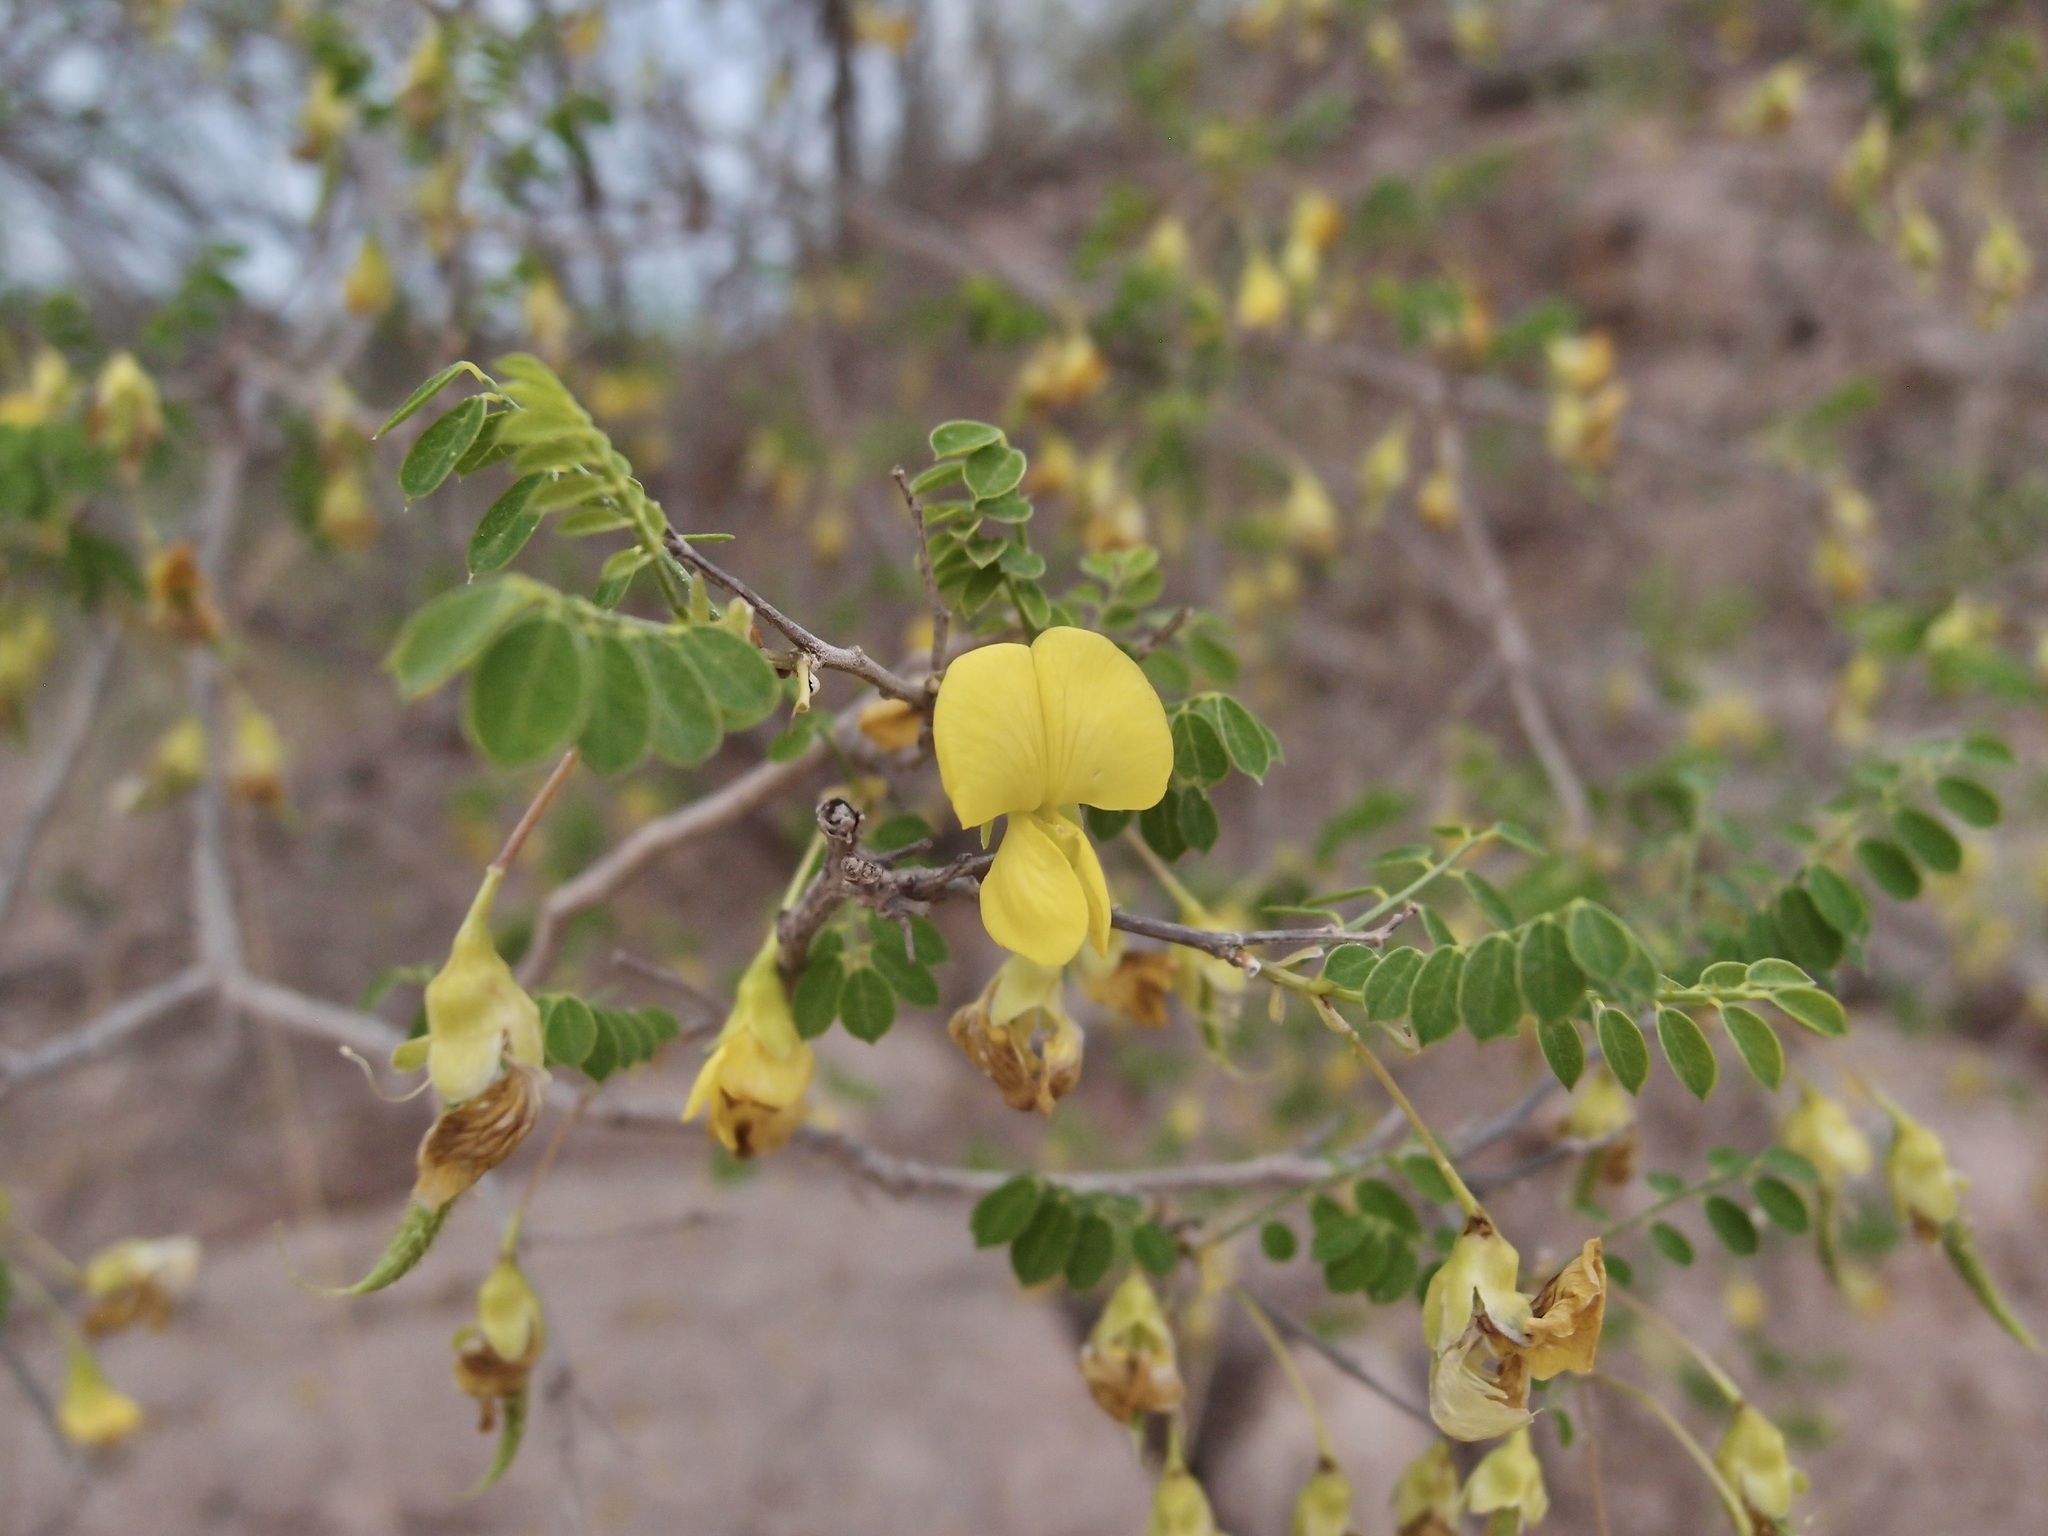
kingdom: Plantae
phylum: Tracheophyta
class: Magnoliopsida
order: Fabales
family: Fabaceae
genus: Diphysa
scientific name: Diphysa occidentalis
